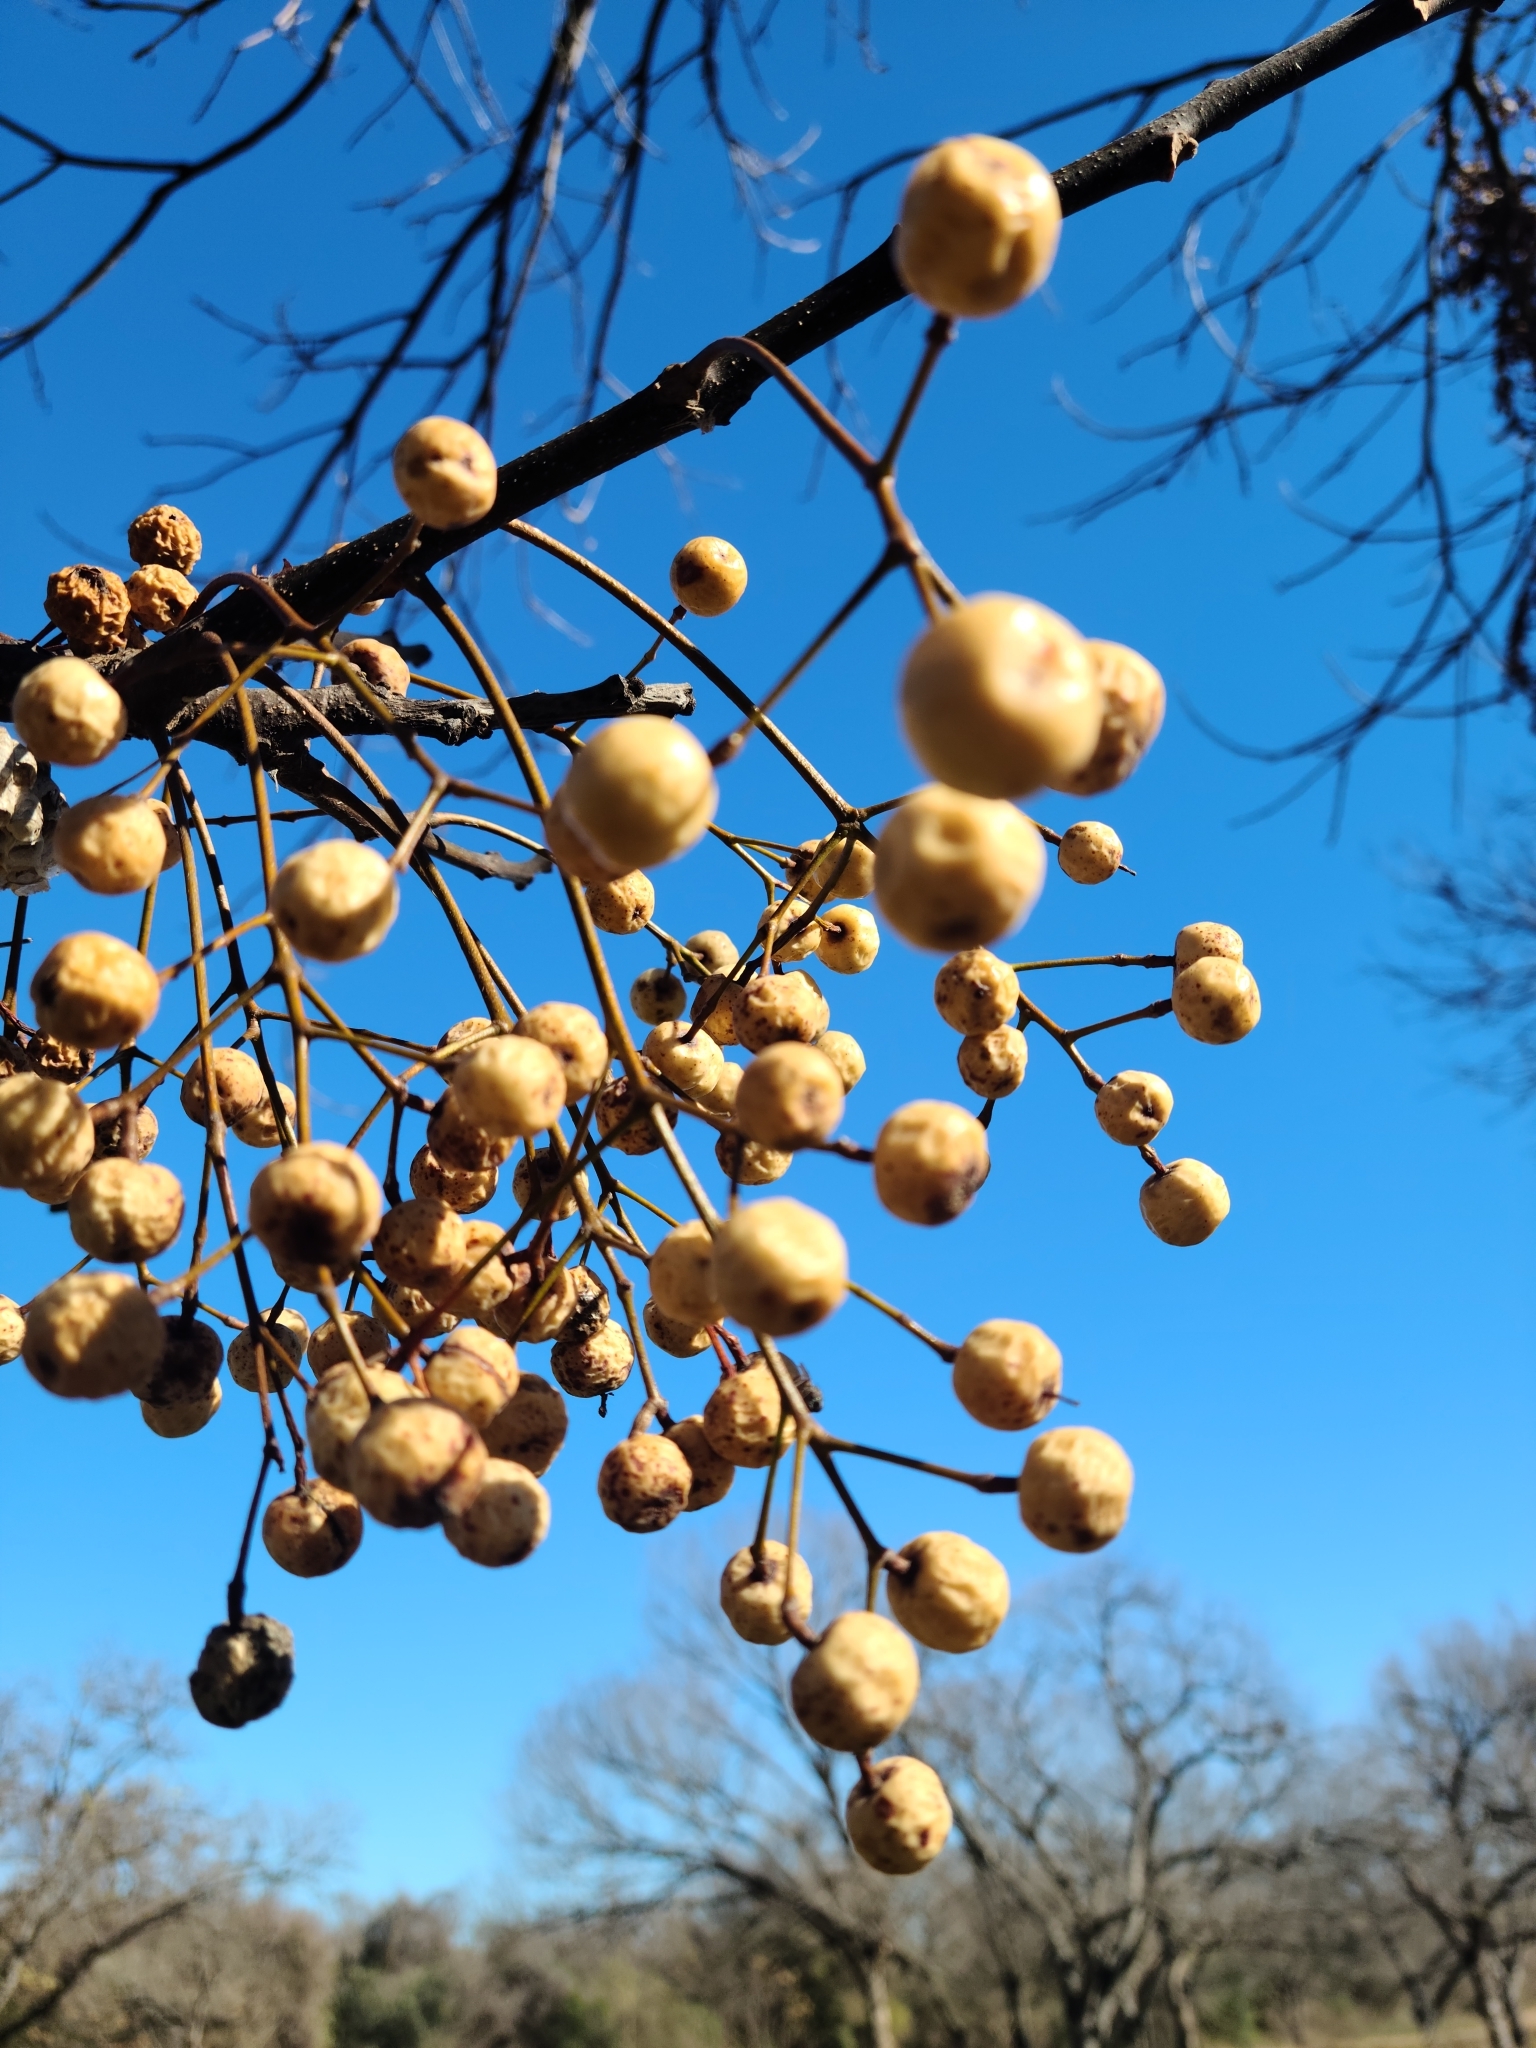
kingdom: Plantae
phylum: Tracheophyta
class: Magnoliopsida
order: Sapindales
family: Meliaceae
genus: Melia
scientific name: Melia azedarach
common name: Chinaberrytree
